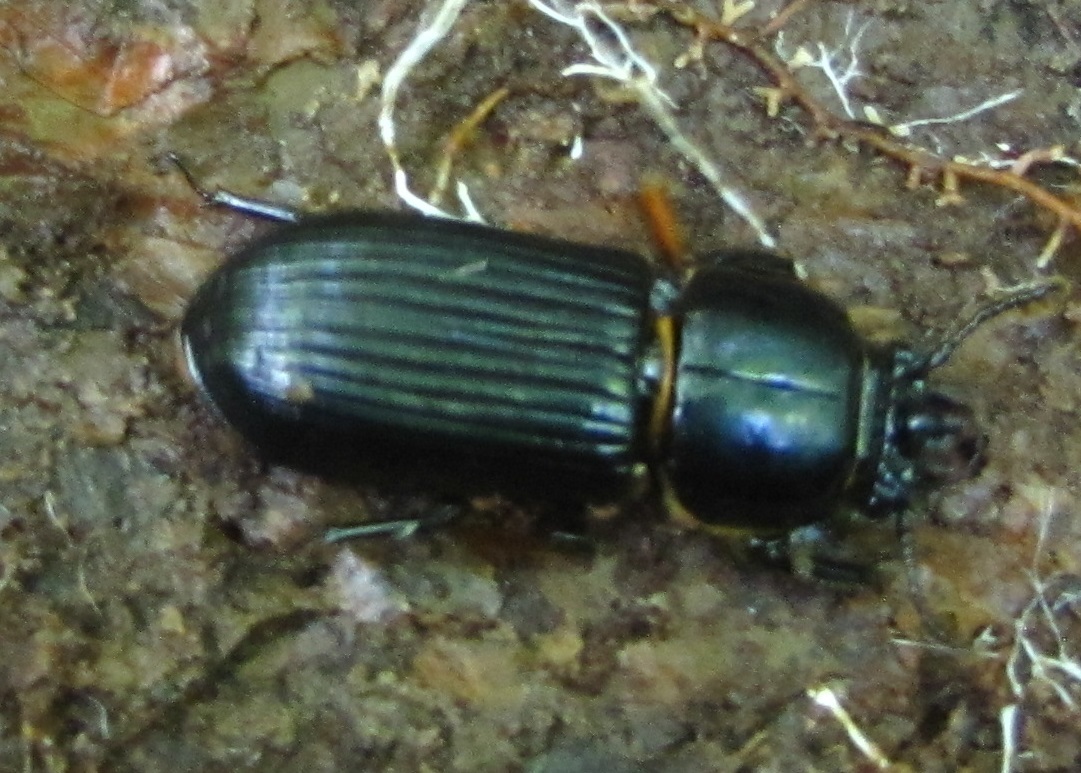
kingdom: Animalia
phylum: Arthropoda
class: Insecta
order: Coleoptera
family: Passalidae
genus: Odontotaenius
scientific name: Odontotaenius disjunctus
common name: Patent leather beetle
